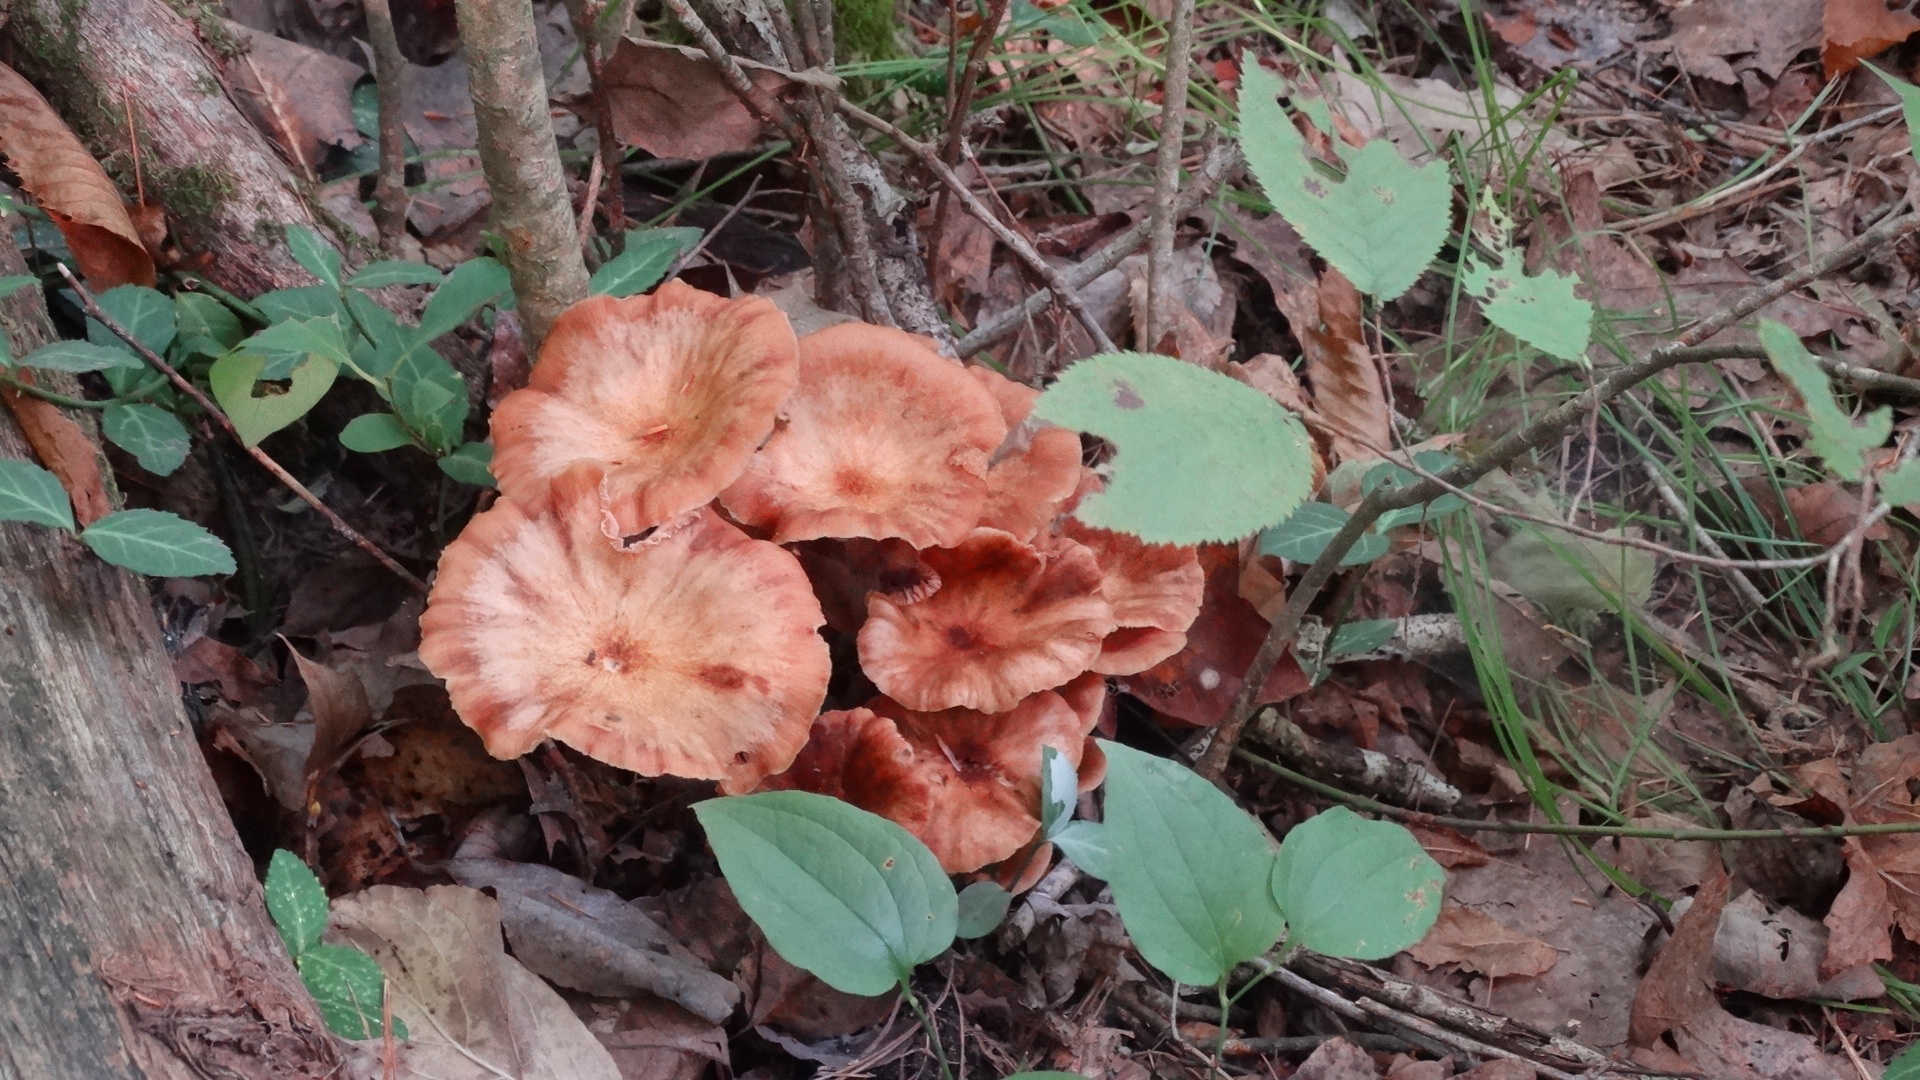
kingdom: Fungi
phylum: Basidiomycota
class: Agaricomycetes
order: Agaricales
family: Physalacriaceae
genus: Desarmillaria
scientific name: Desarmillaria caespitosa
